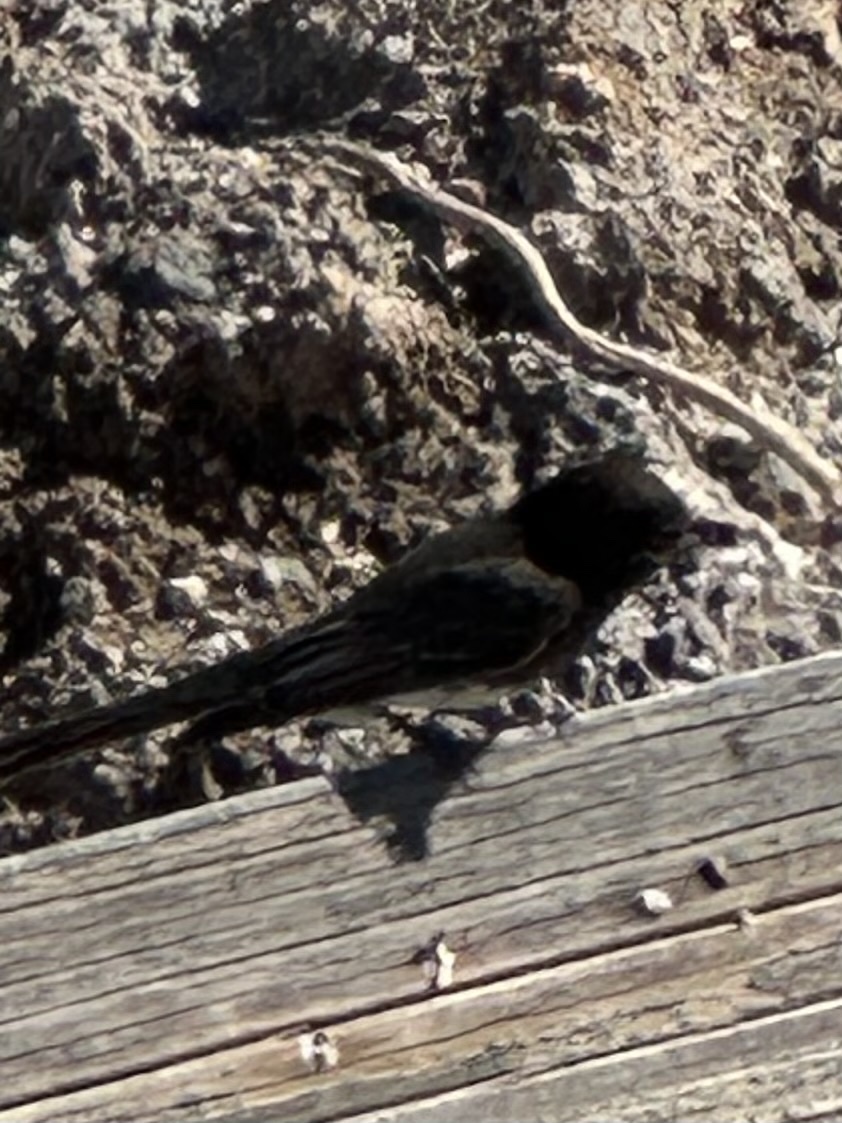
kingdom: Animalia
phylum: Chordata
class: Aves
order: Passeriformes
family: Tyrannidae
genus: Sayornis
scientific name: Sayornis nigricans
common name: Black phoebe
